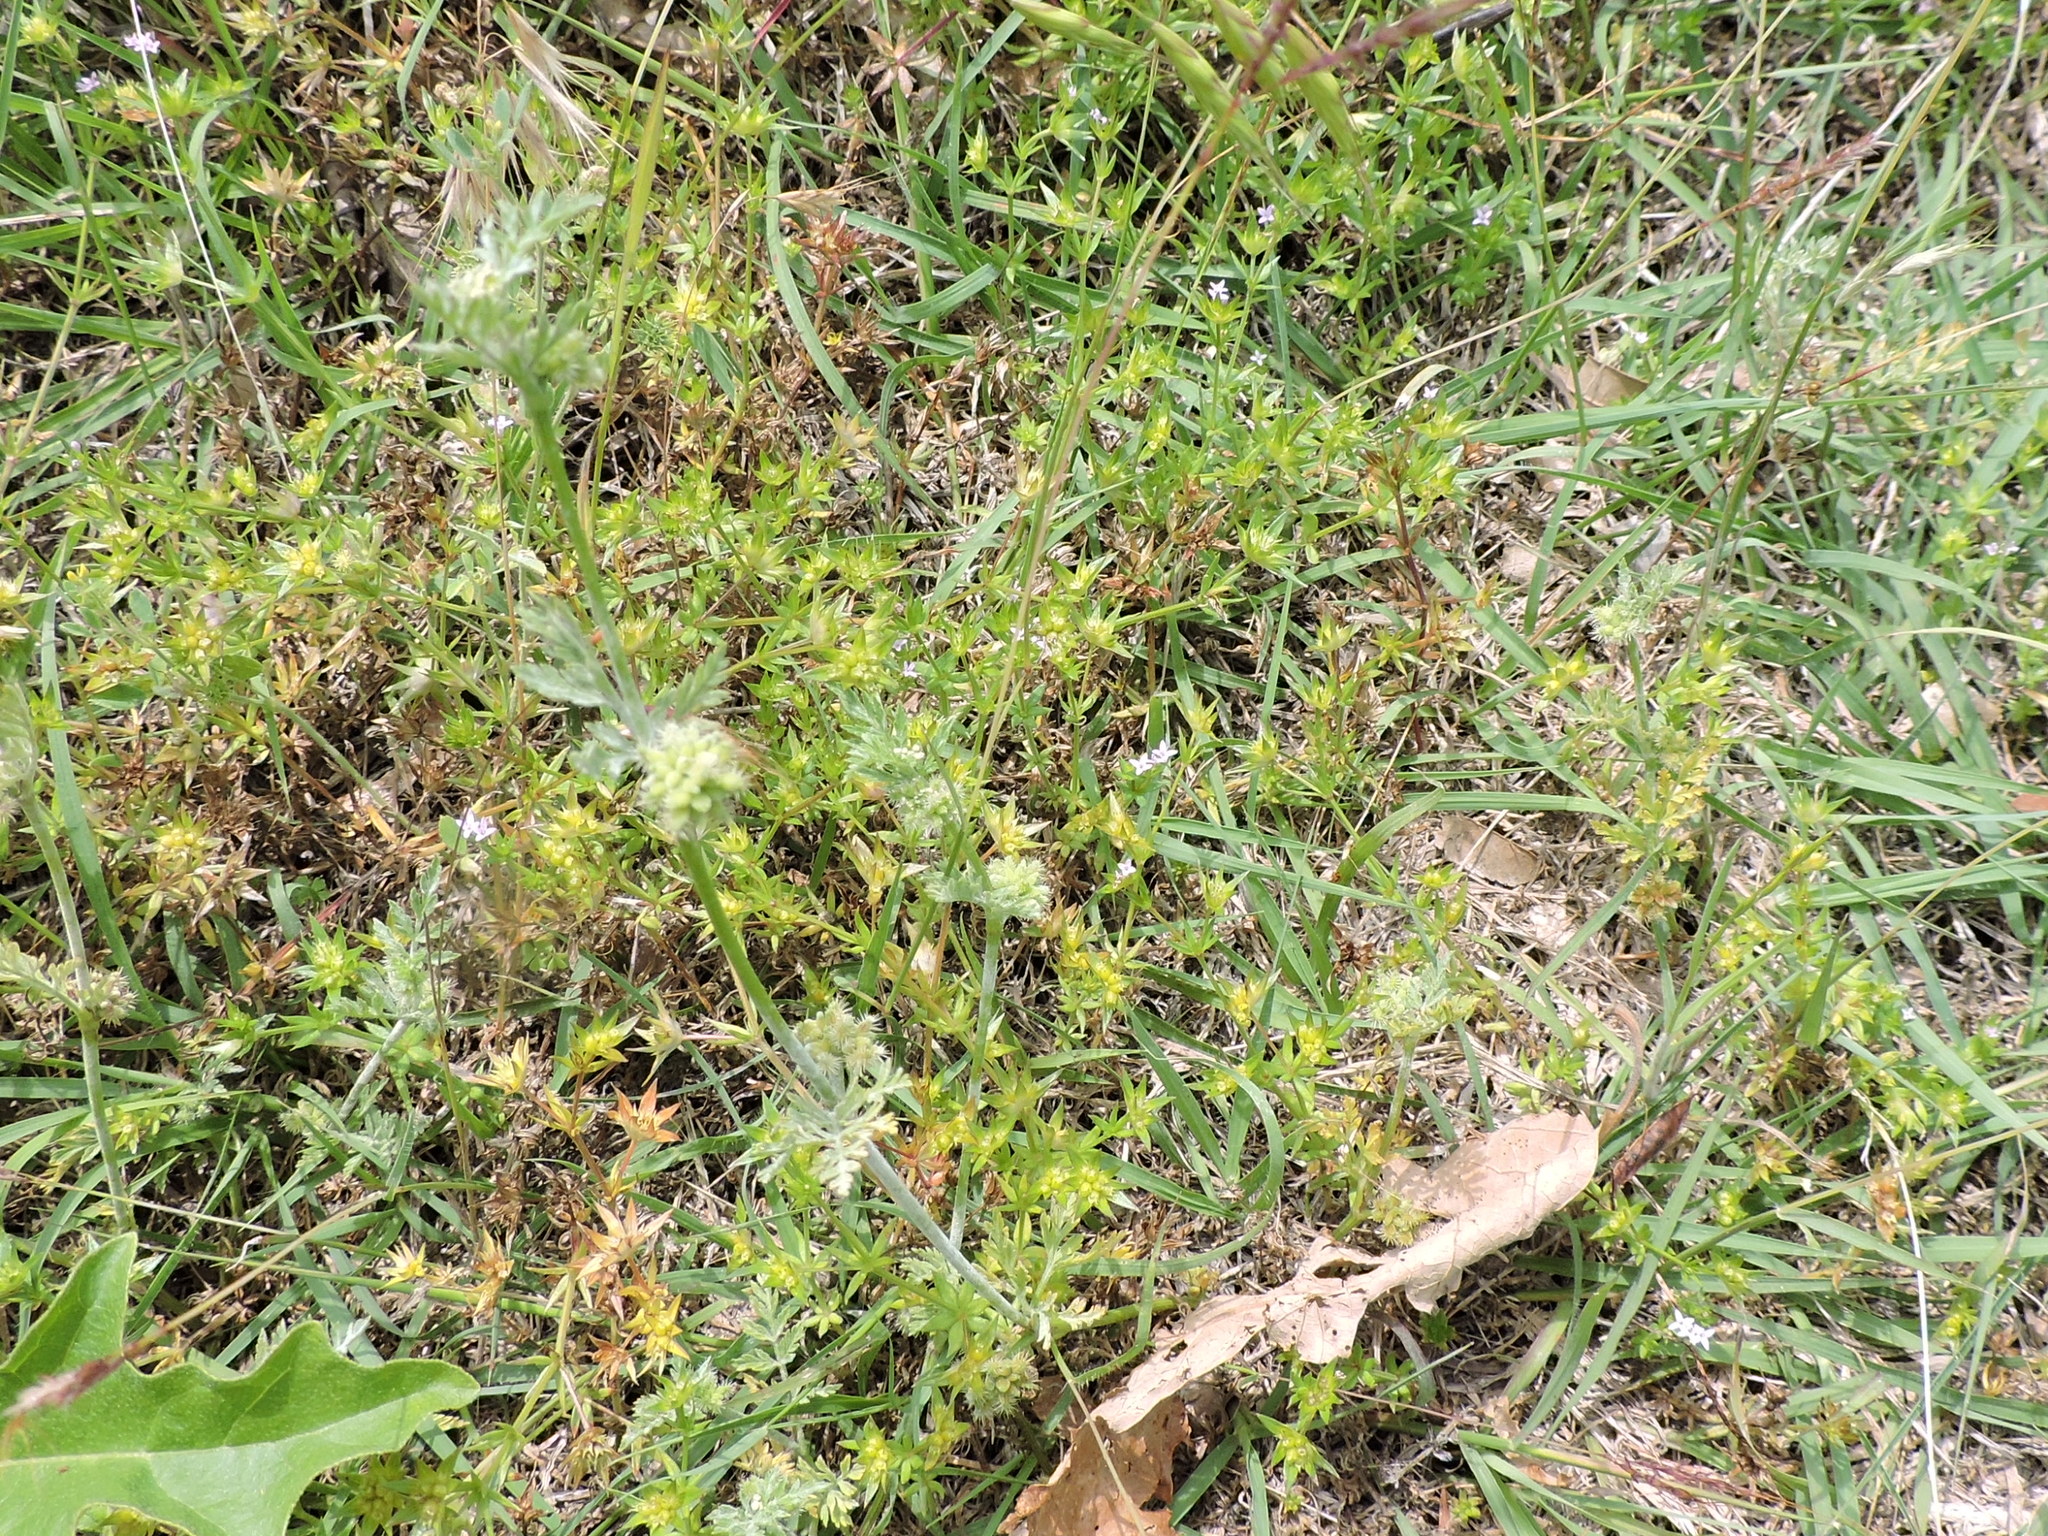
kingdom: Plantae
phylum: Tracheophyta
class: Magnoliopsida
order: Apiales
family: Apiaceae
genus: Torilis
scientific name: Torilis nodosa
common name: Knotted hedge-parsley
